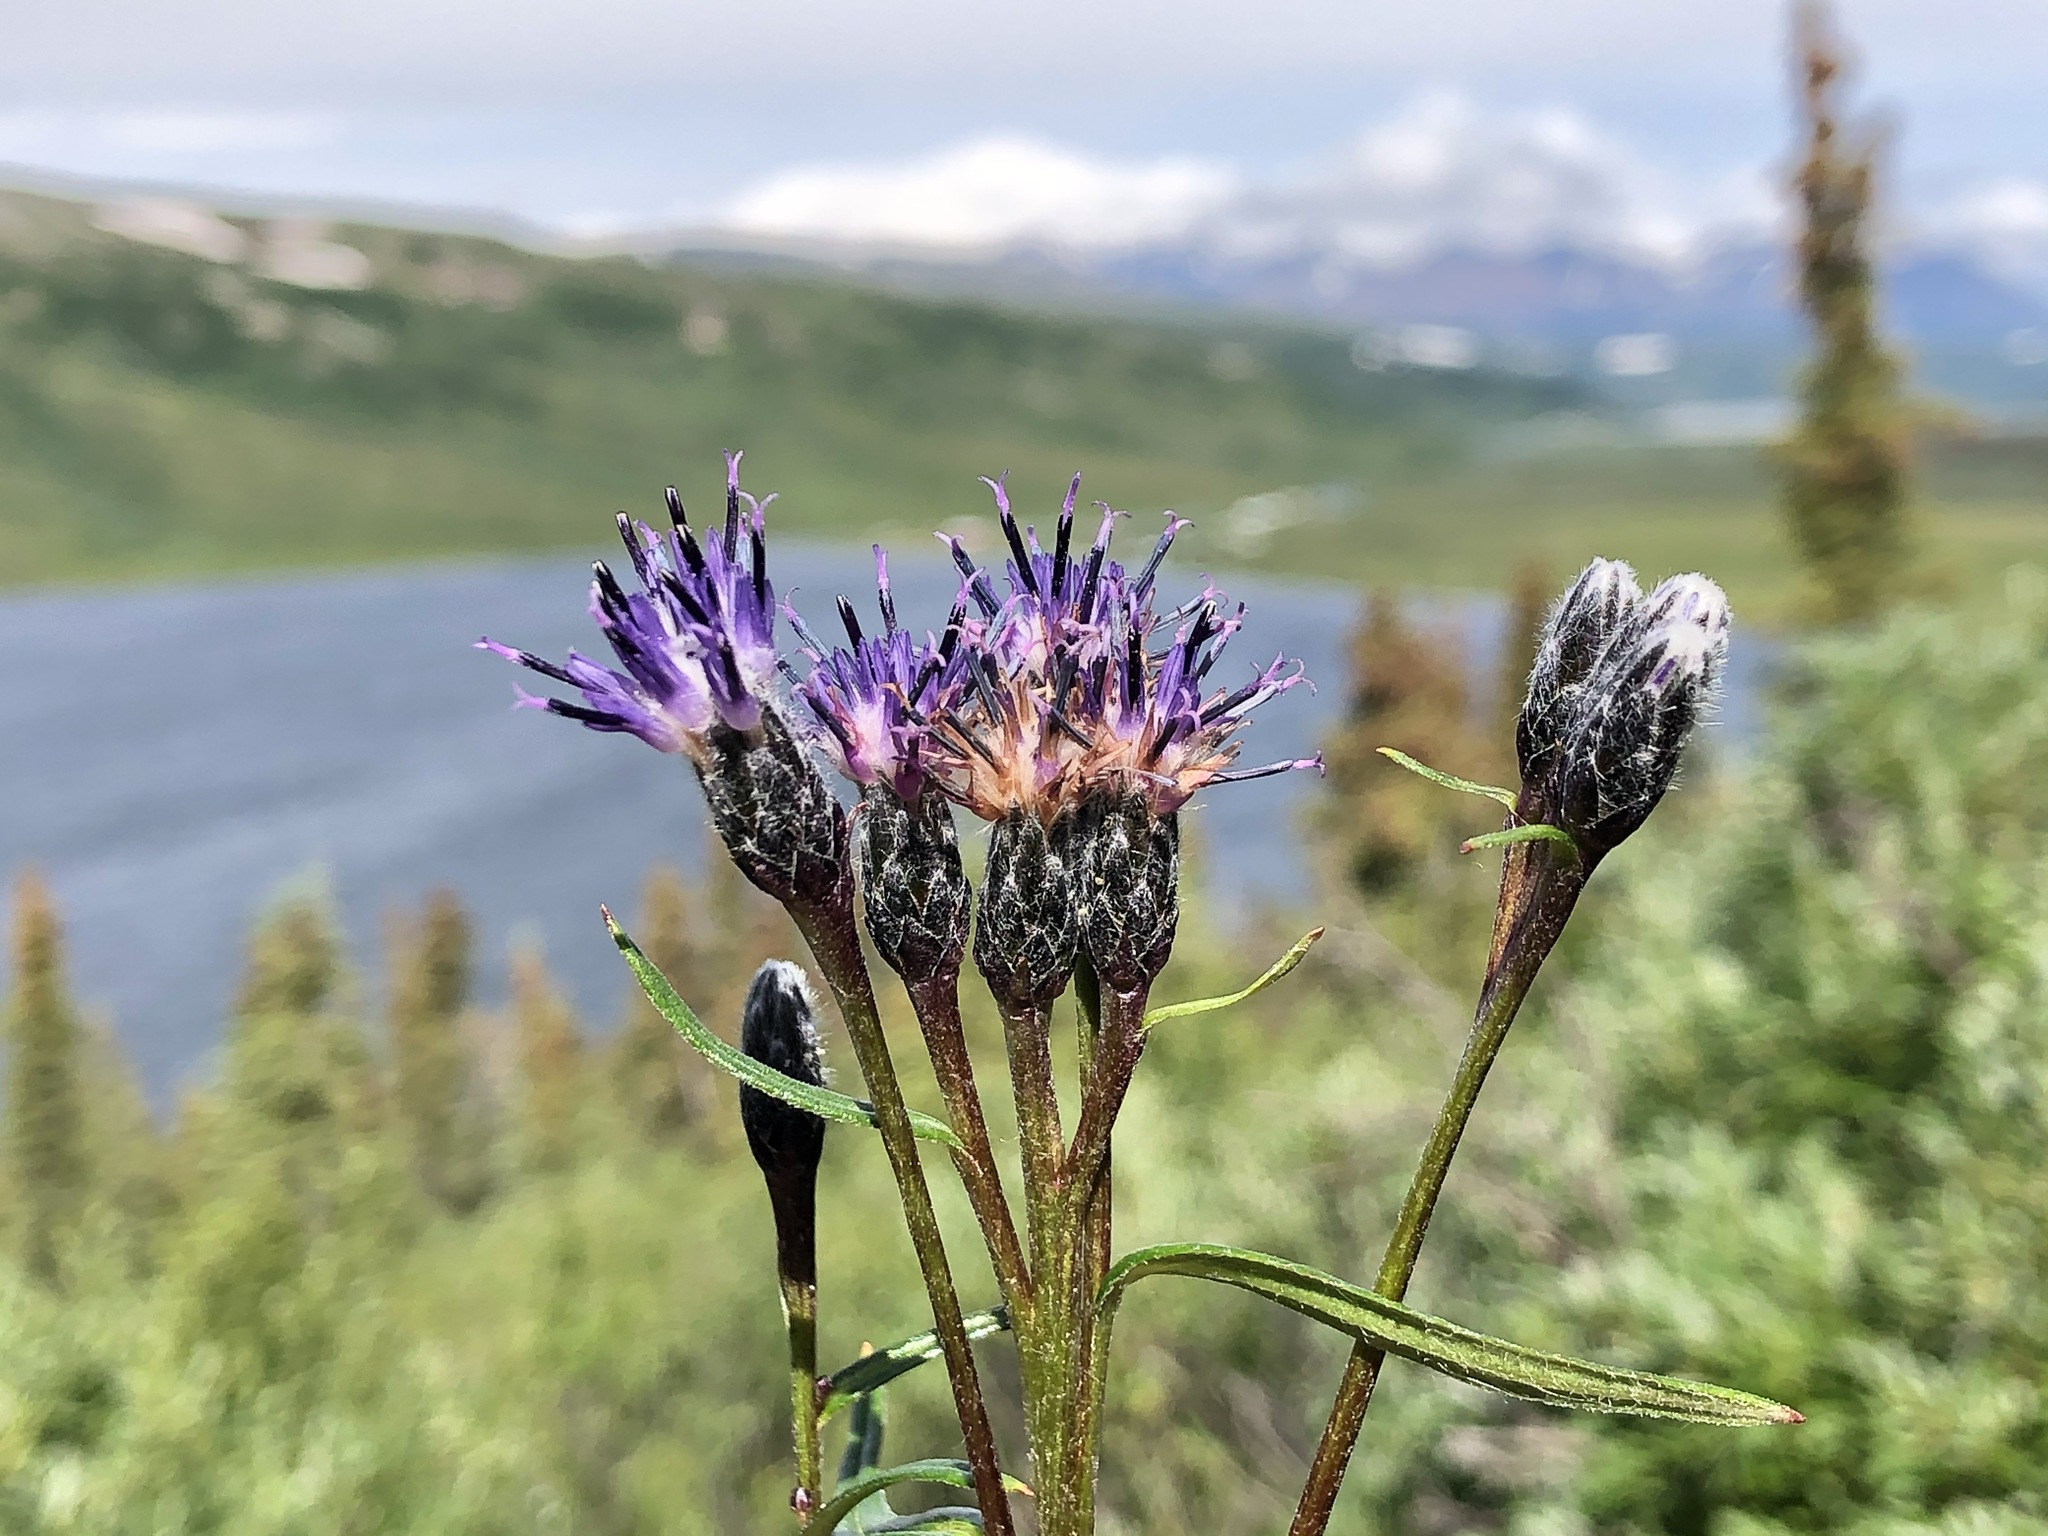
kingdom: Plantae
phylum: Tracheophyta
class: Magnoliopsida
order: Asterales
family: Asteraceae
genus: Saussurea
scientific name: Saussurea angustifolia
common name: Common saussurea
